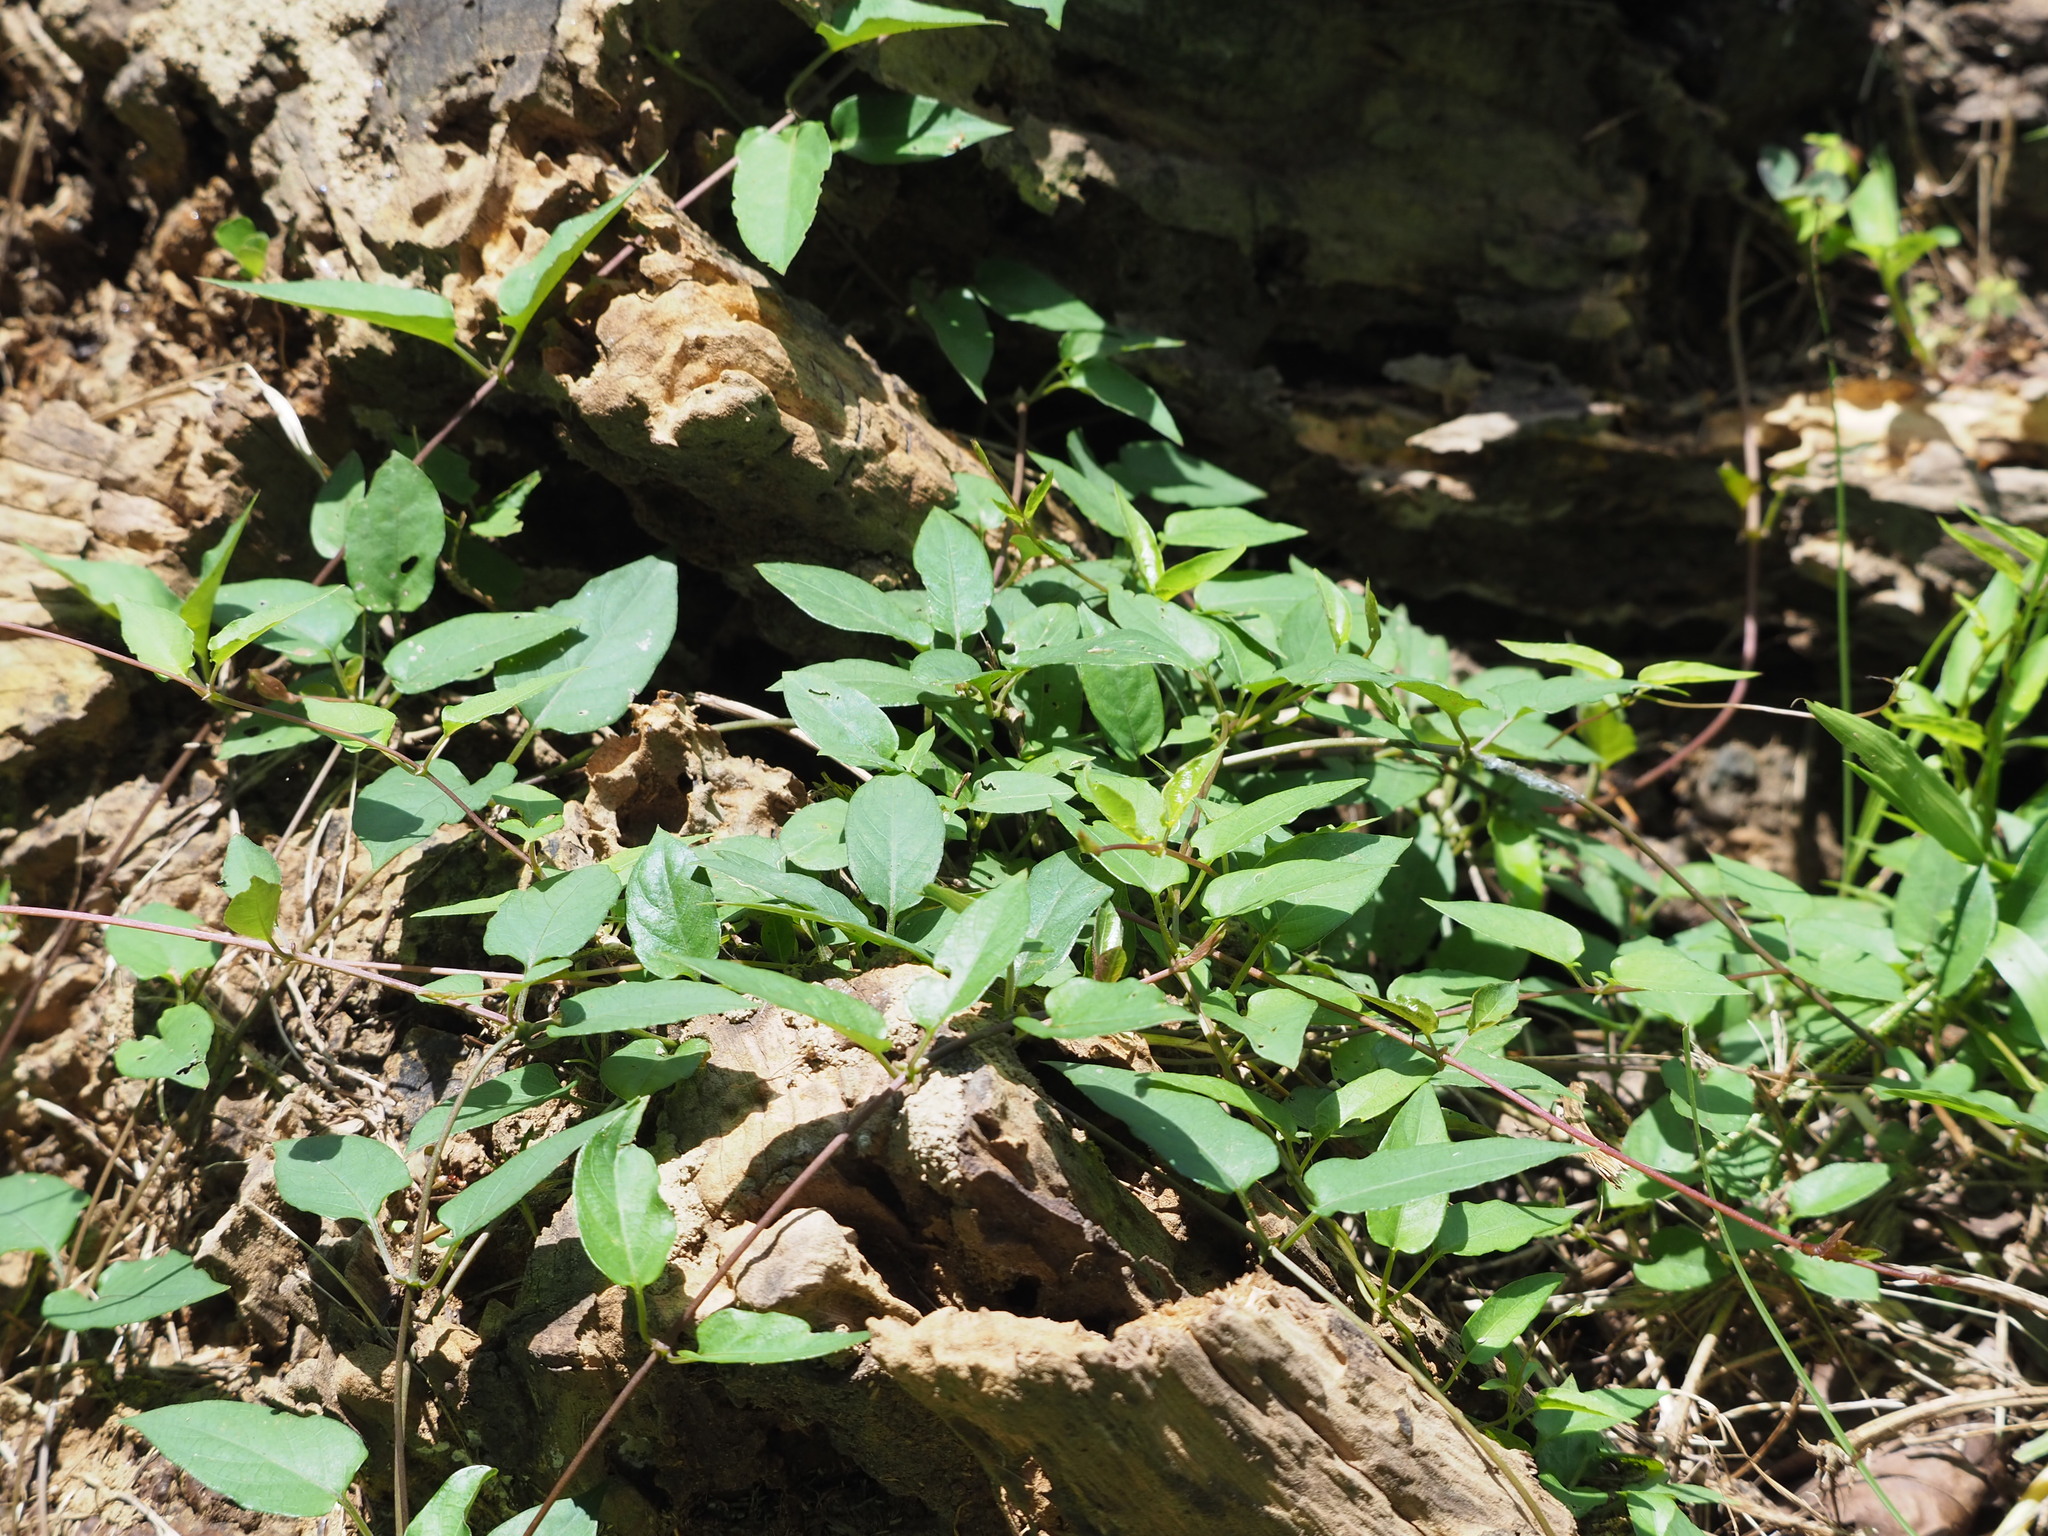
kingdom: Plantae
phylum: Tracheophyta
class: Magnoliopsida
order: Gentianales
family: Rubiaceae
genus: Paederia
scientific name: Paederia foetida
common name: Stinkvine
